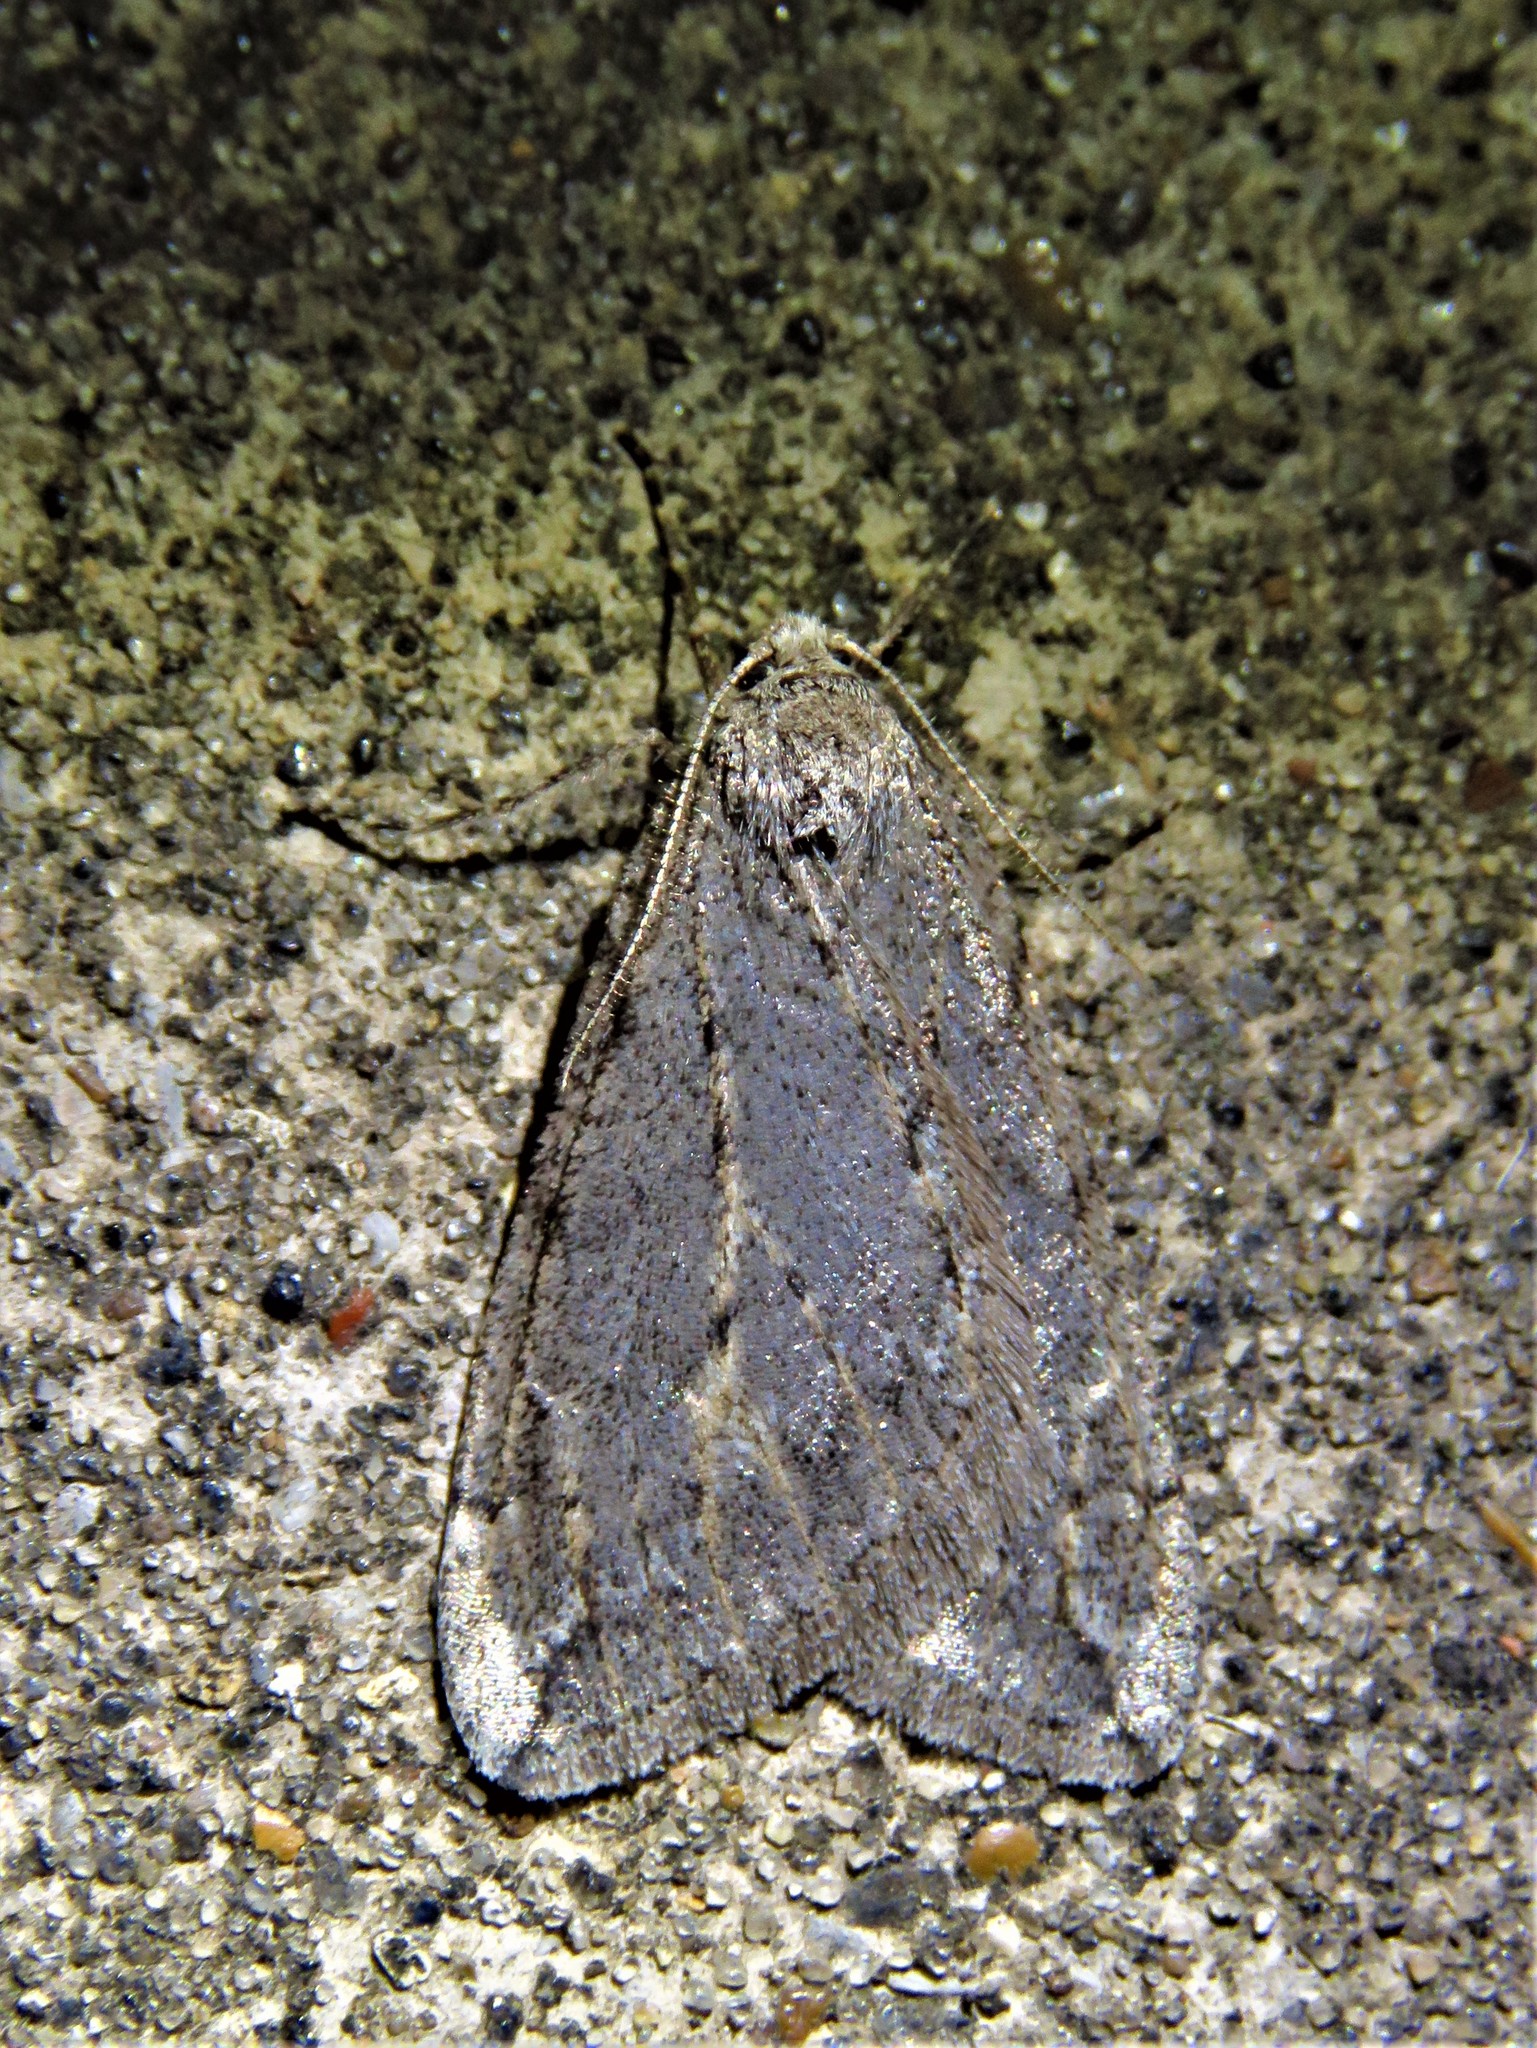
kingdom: Animalia
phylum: Arthropoda
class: Insecta
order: Lepidoptera
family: Geometridae
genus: Paleacrita
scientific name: Paleacrita vernata
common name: Spring cankerworm
